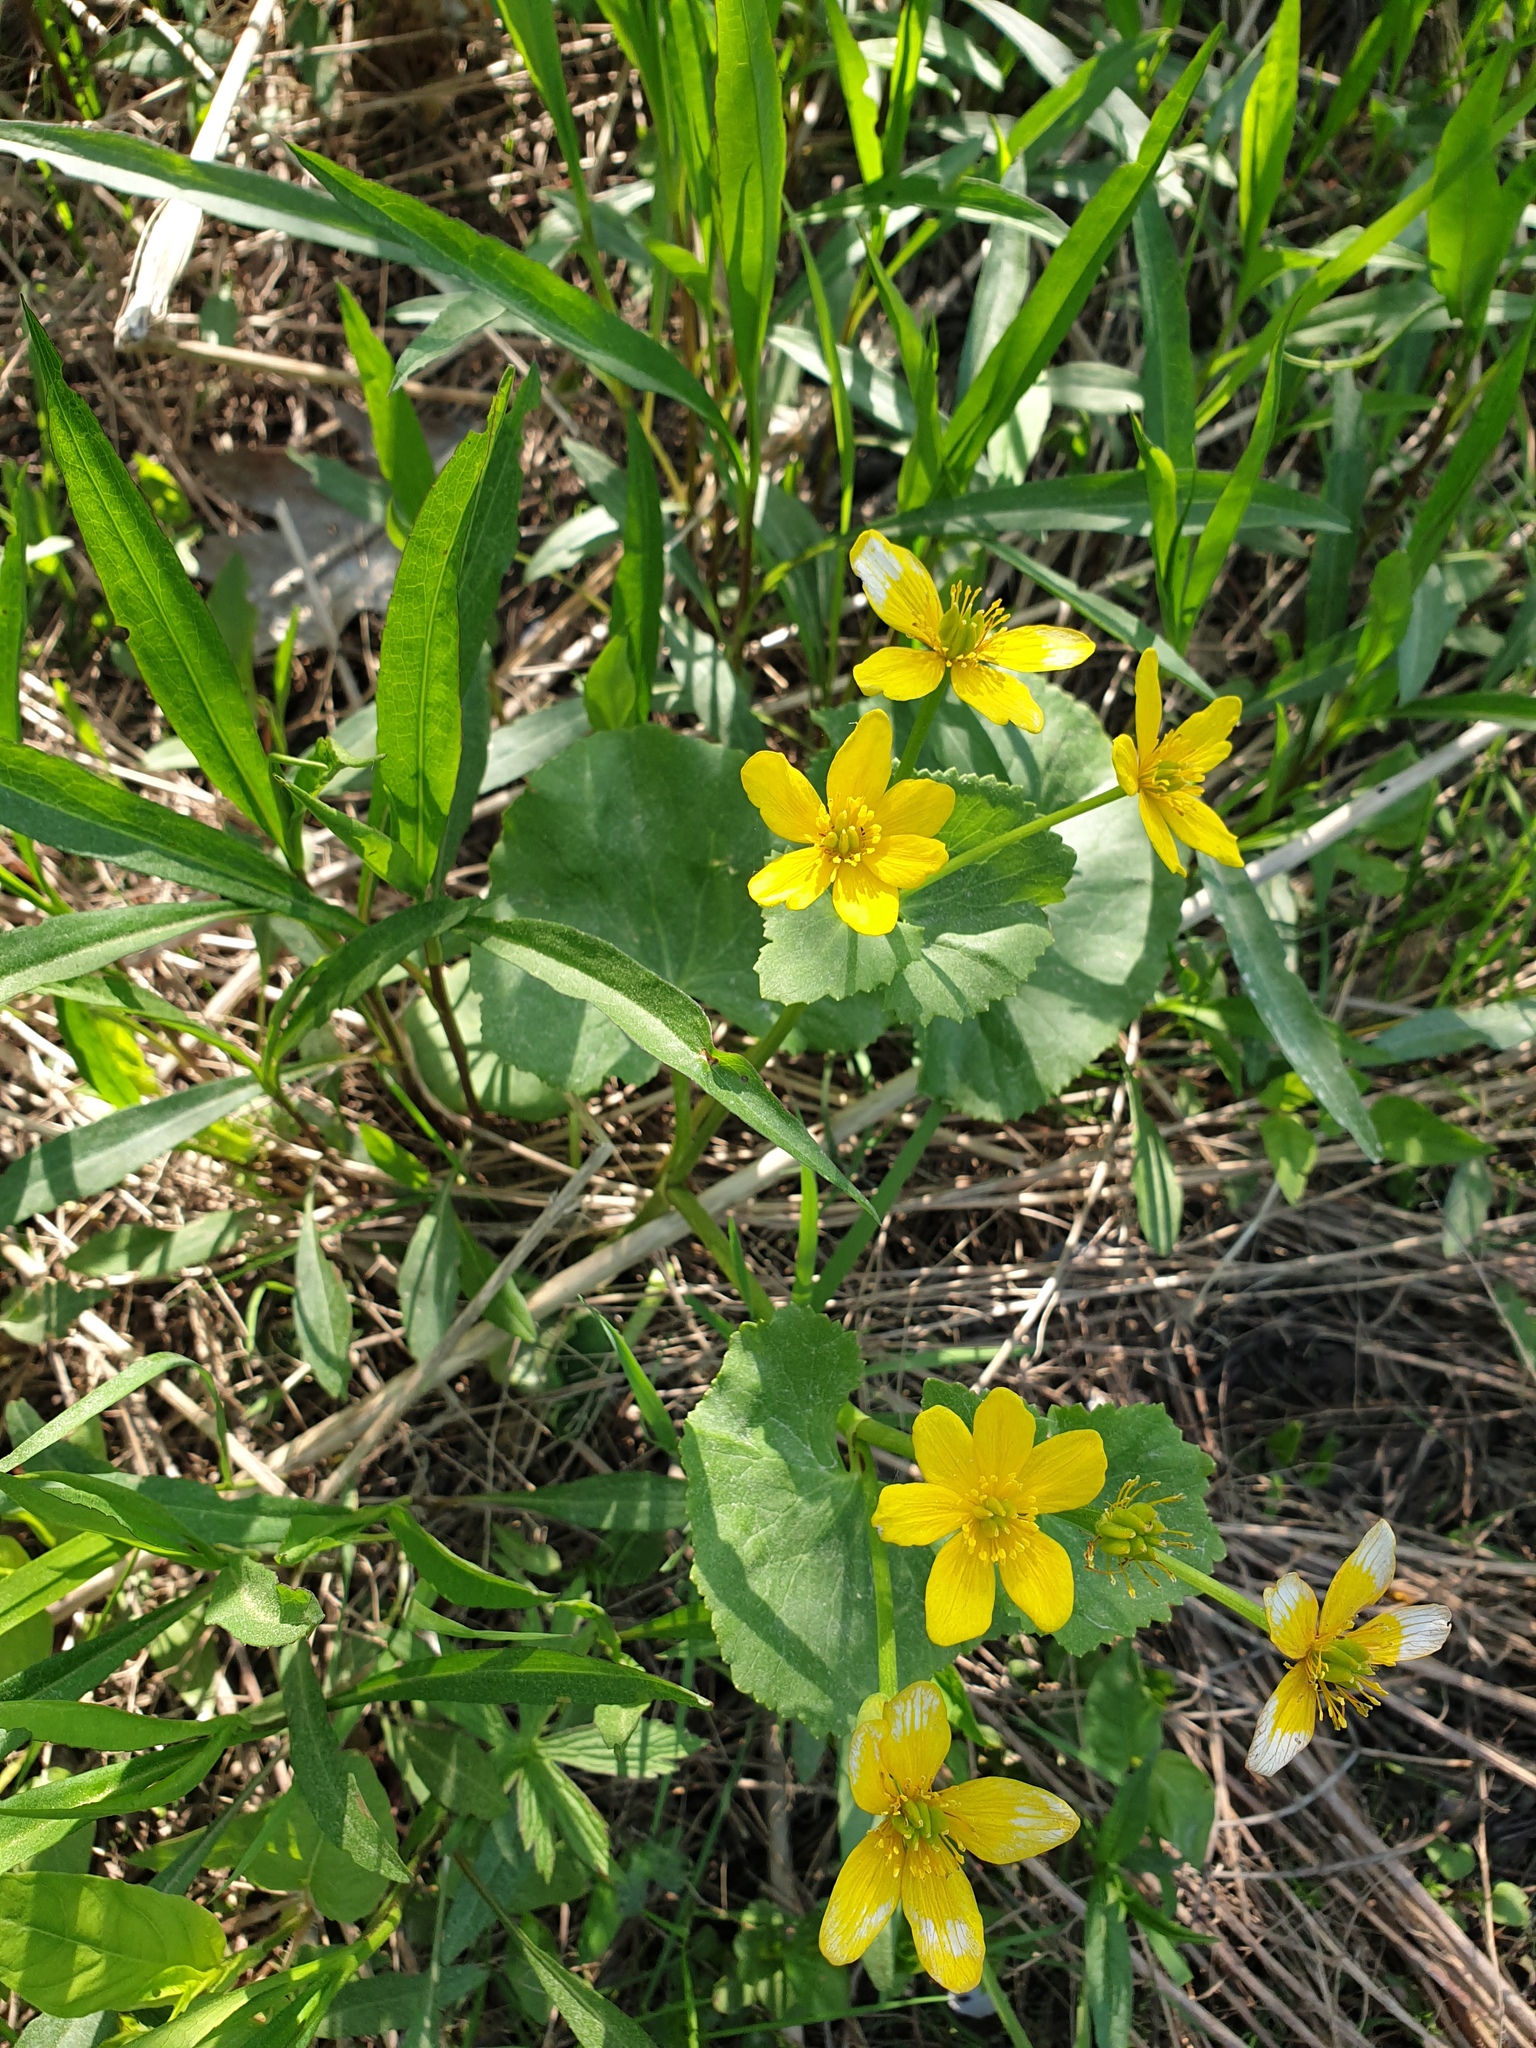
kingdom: Plantae
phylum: Tracheophyta
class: Magnoliopsida
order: Ranunculales
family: Ranunculaceae
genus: Caltha
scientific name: Caltha palustris
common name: Marsh marigold
